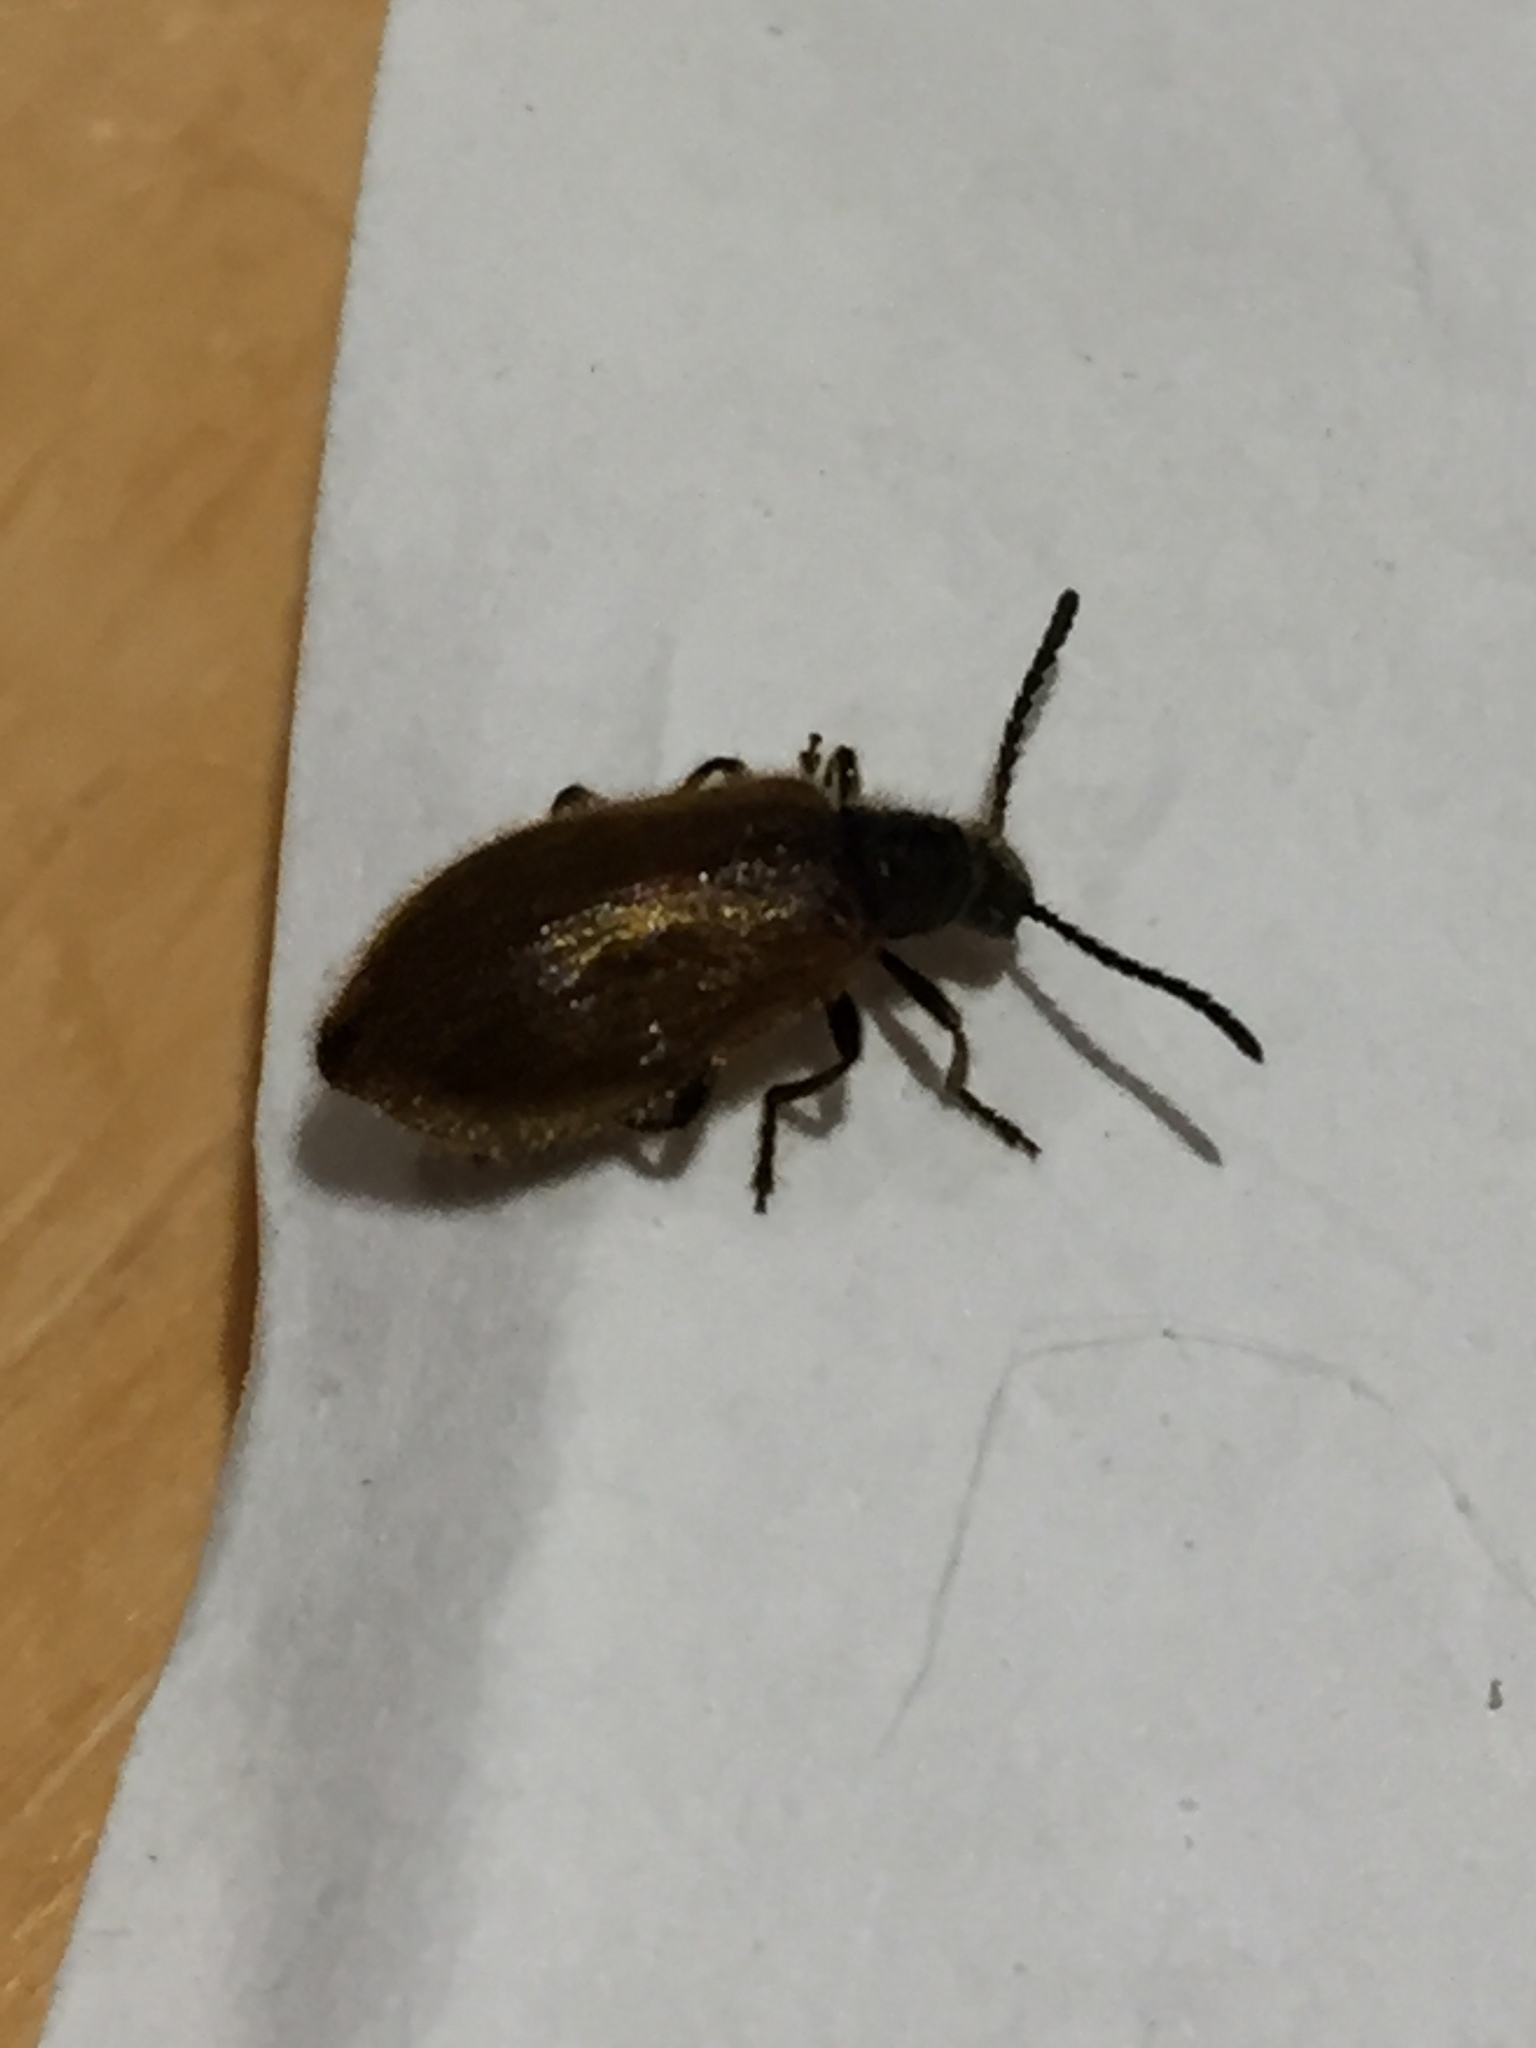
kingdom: Animalia
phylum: Arthropoda
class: Insecta
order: Coleoptera
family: Tenebrionidae
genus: Lagria
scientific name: Lagria hirta
